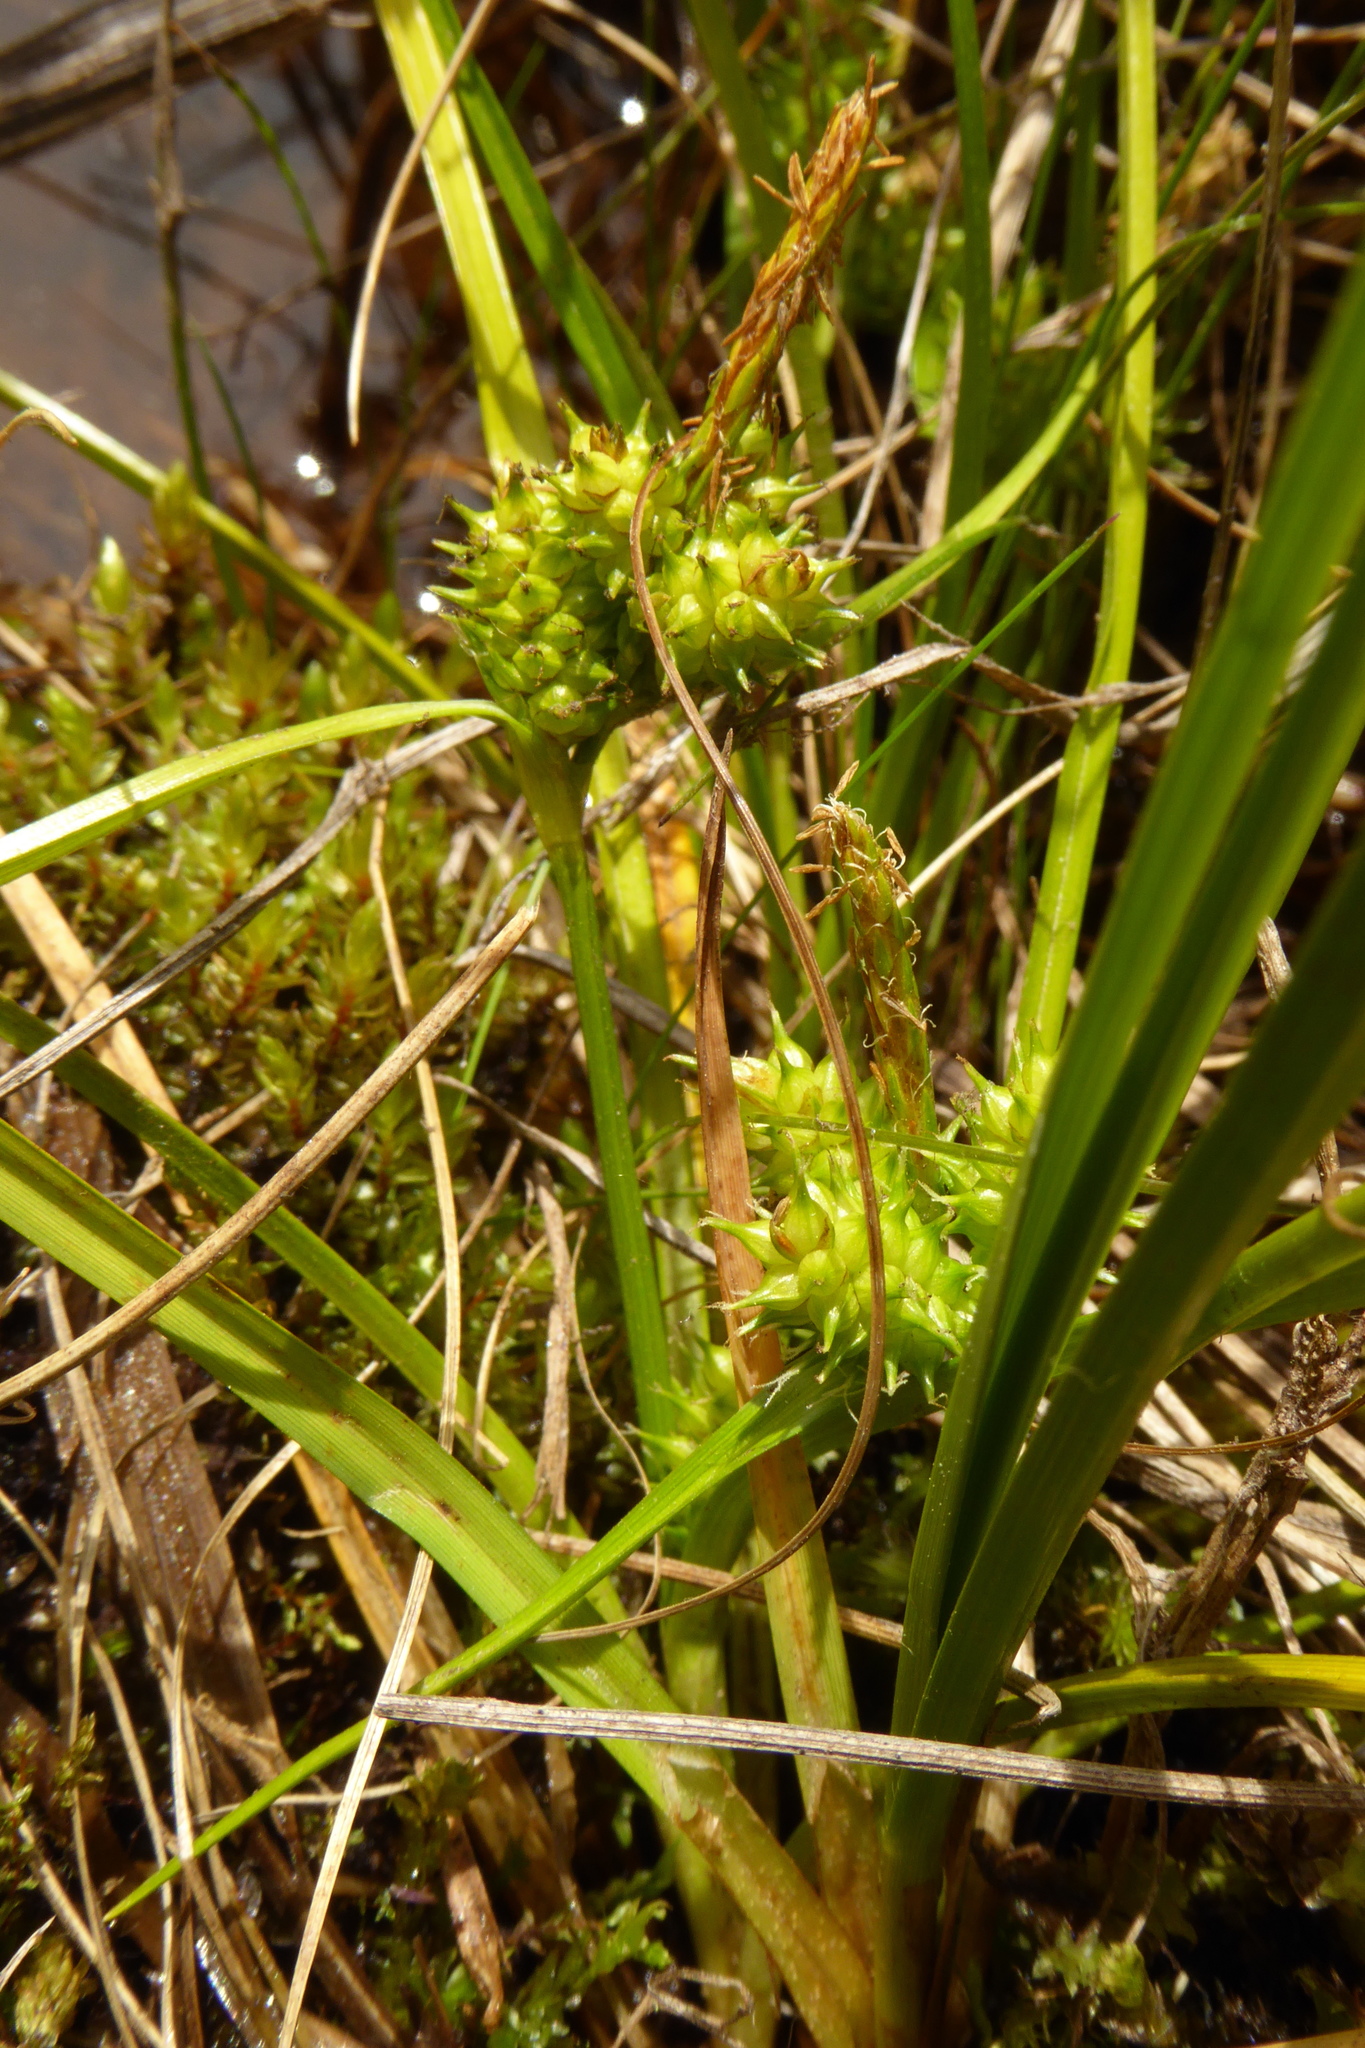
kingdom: Plantae
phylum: Tracheophyta
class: Liliopsida
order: Poales
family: Cyperaceae
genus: Carex
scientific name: Carex flaviformis
